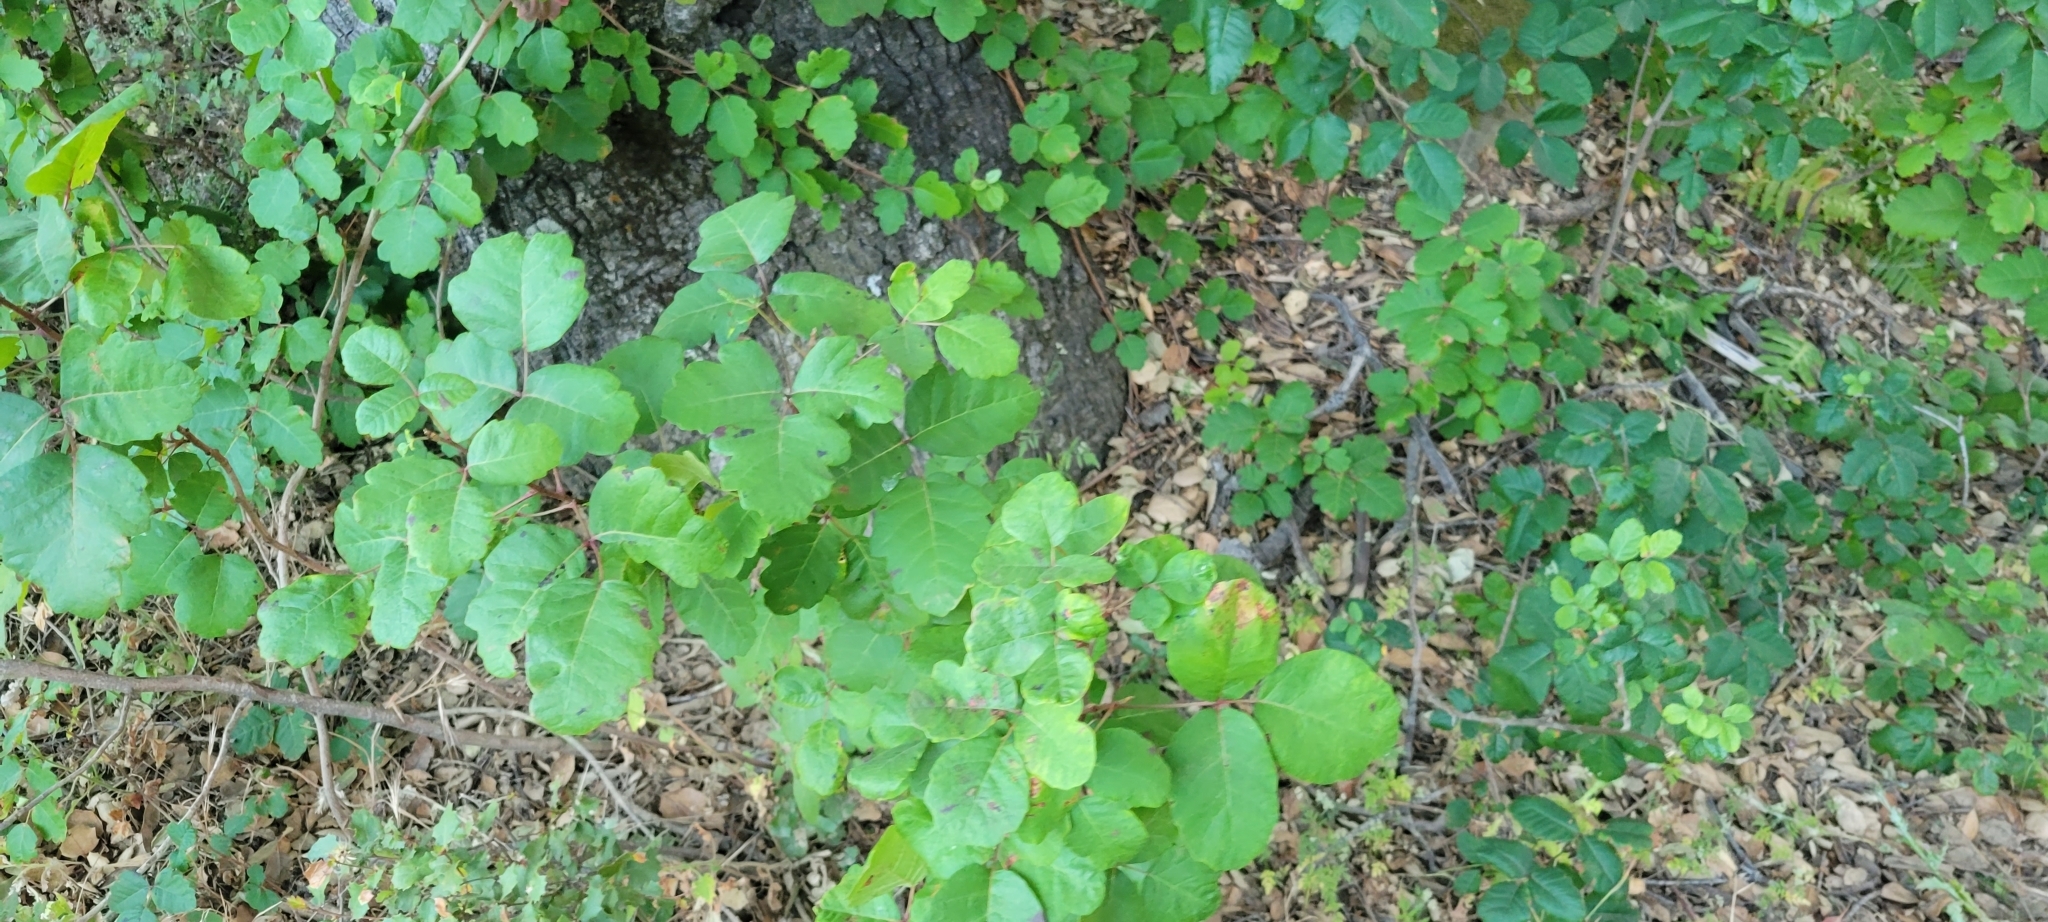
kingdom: Plantae
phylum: Tracheophyta
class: Magnoliopsida
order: Sapindales
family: Anacardiaceae
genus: Toxicodendron
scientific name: Toxicodendron diversilobum
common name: Pacific poison-oak
